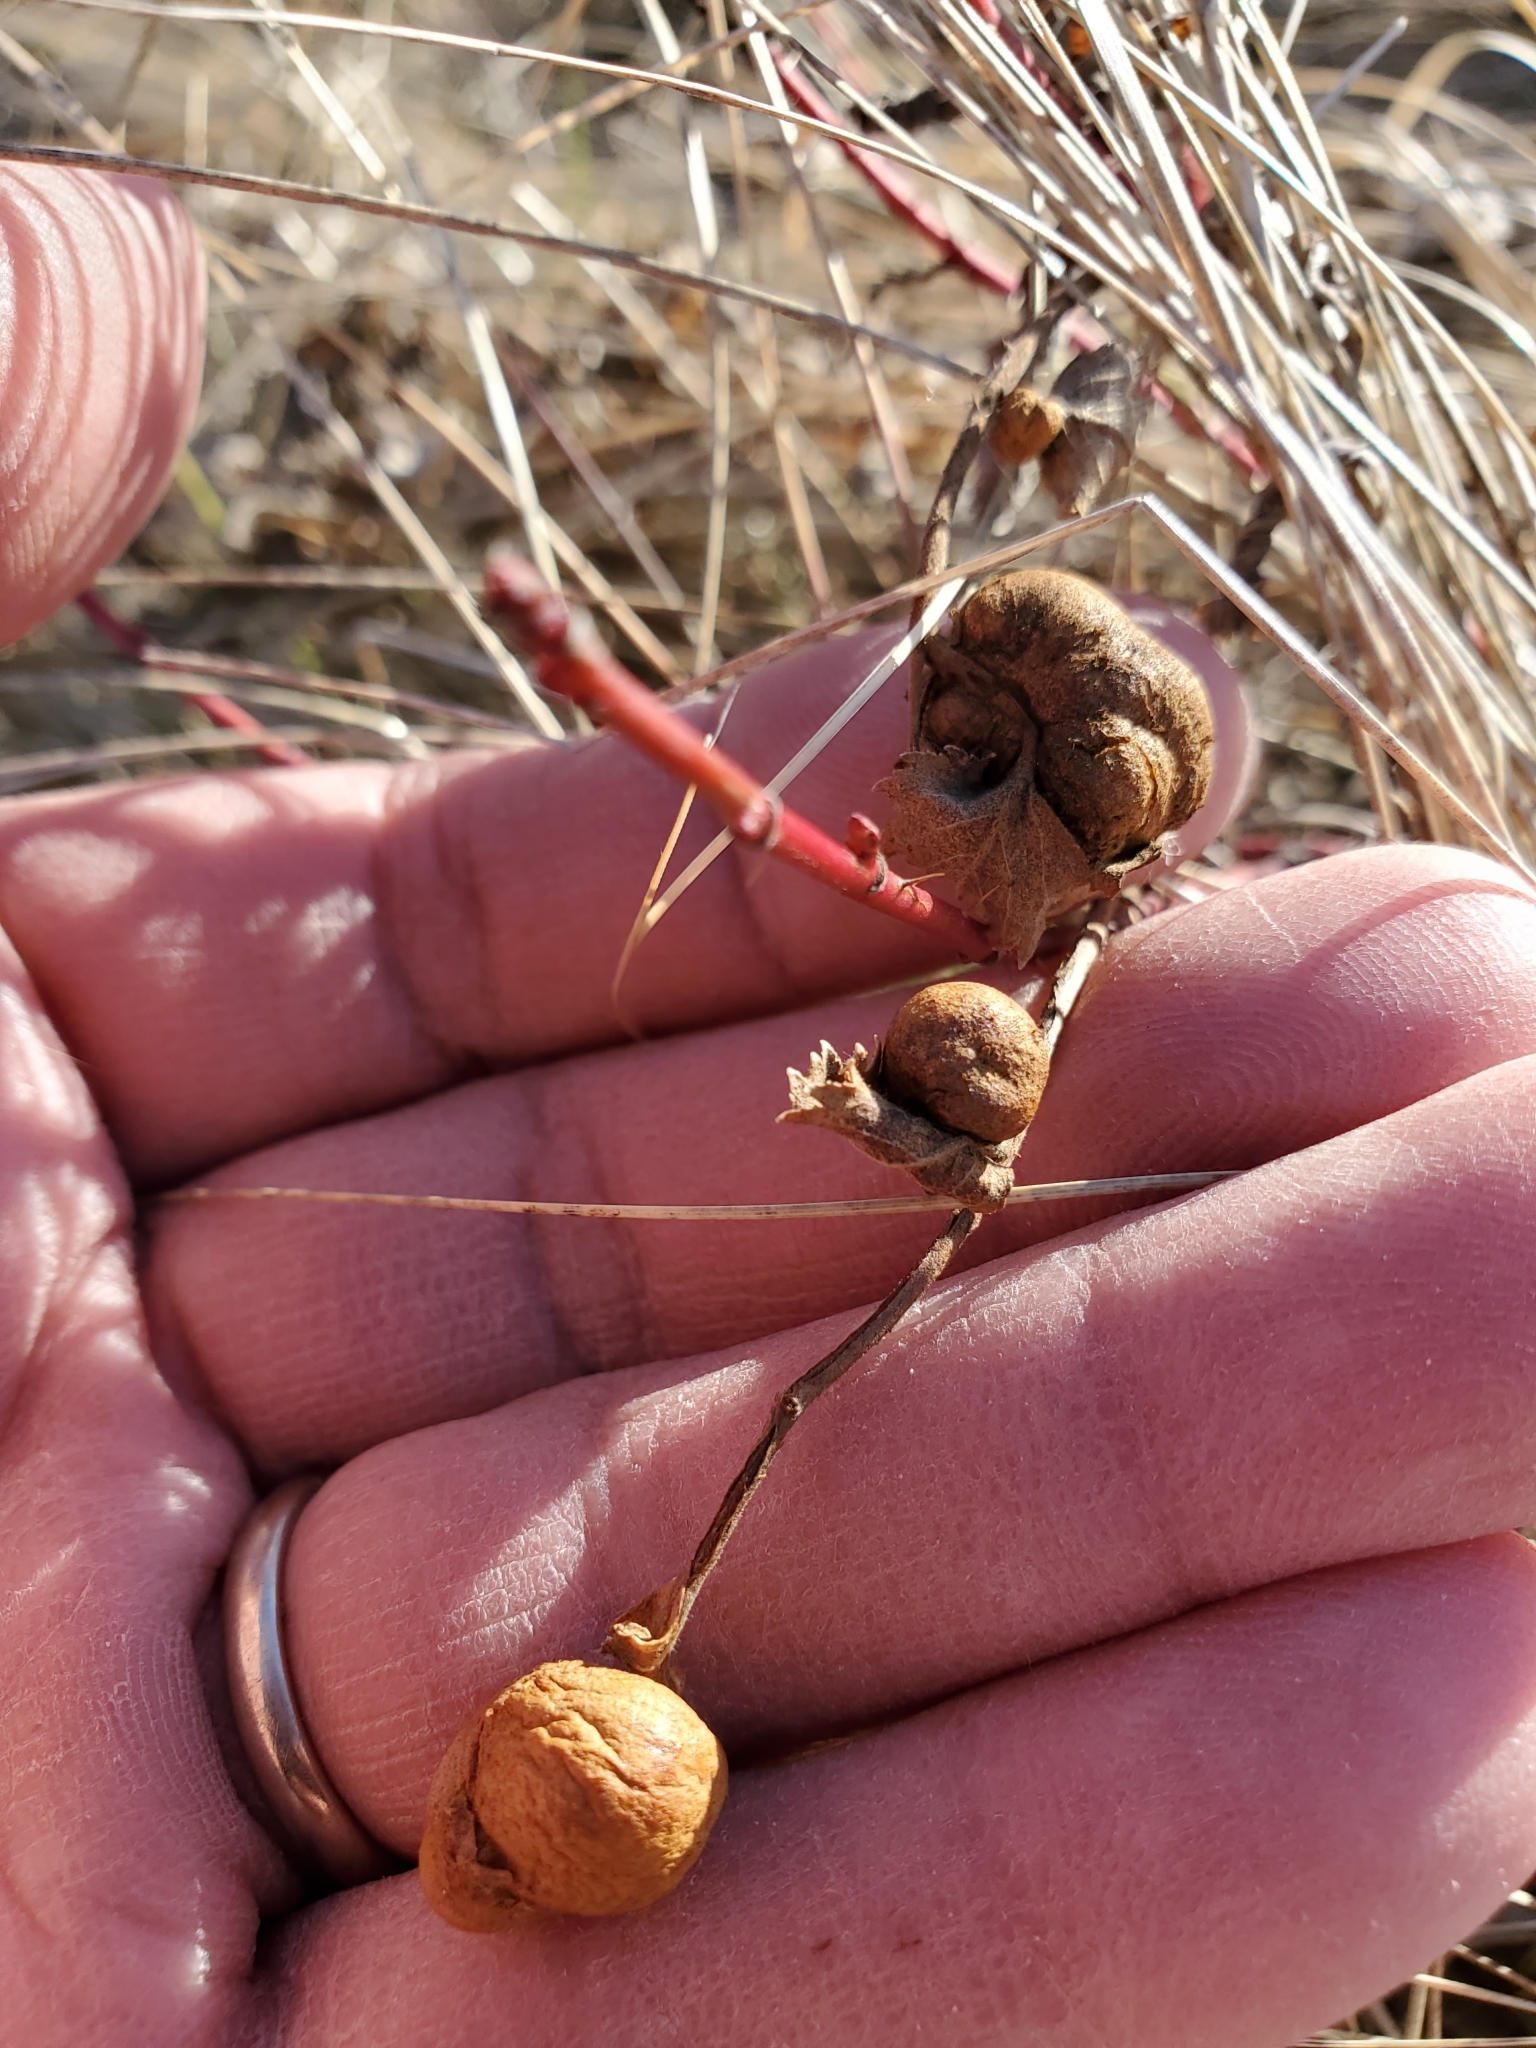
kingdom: Animalia
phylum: Arthropoda
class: Insecta
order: Hymenoptera
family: Cynipidae
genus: Diplolepis
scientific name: Diplolepis ignota
